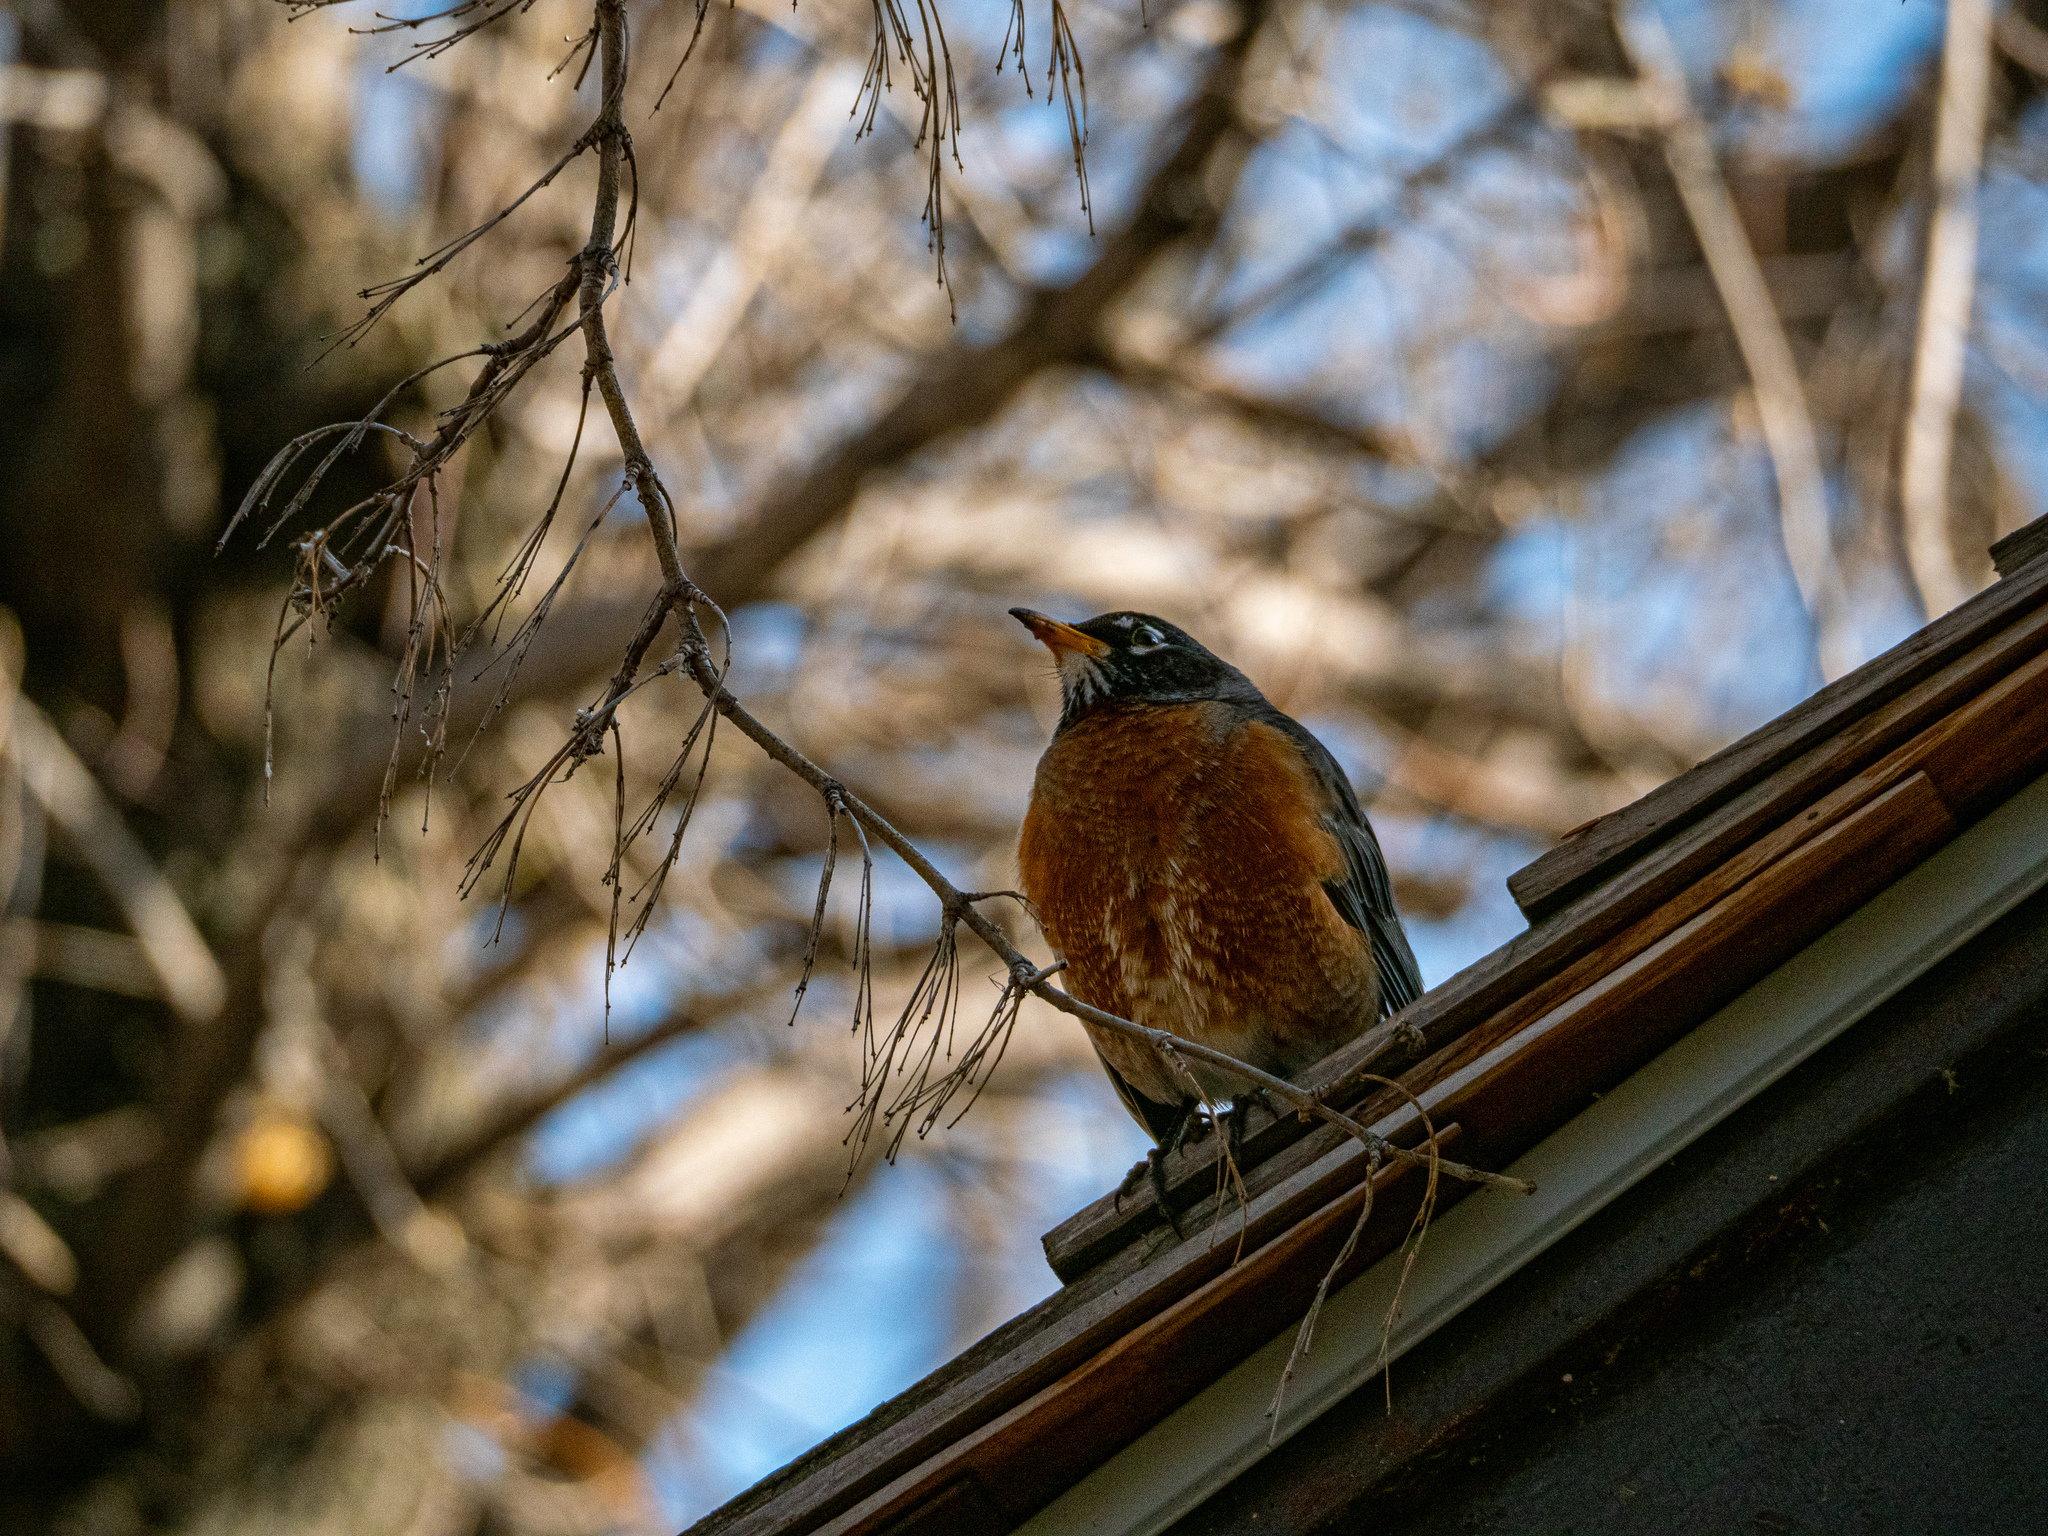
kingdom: Animalia
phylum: Chordata
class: Aves
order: Passeriformes
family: Turdidae
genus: Turdus
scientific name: Turdus migratorius
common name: American robin
